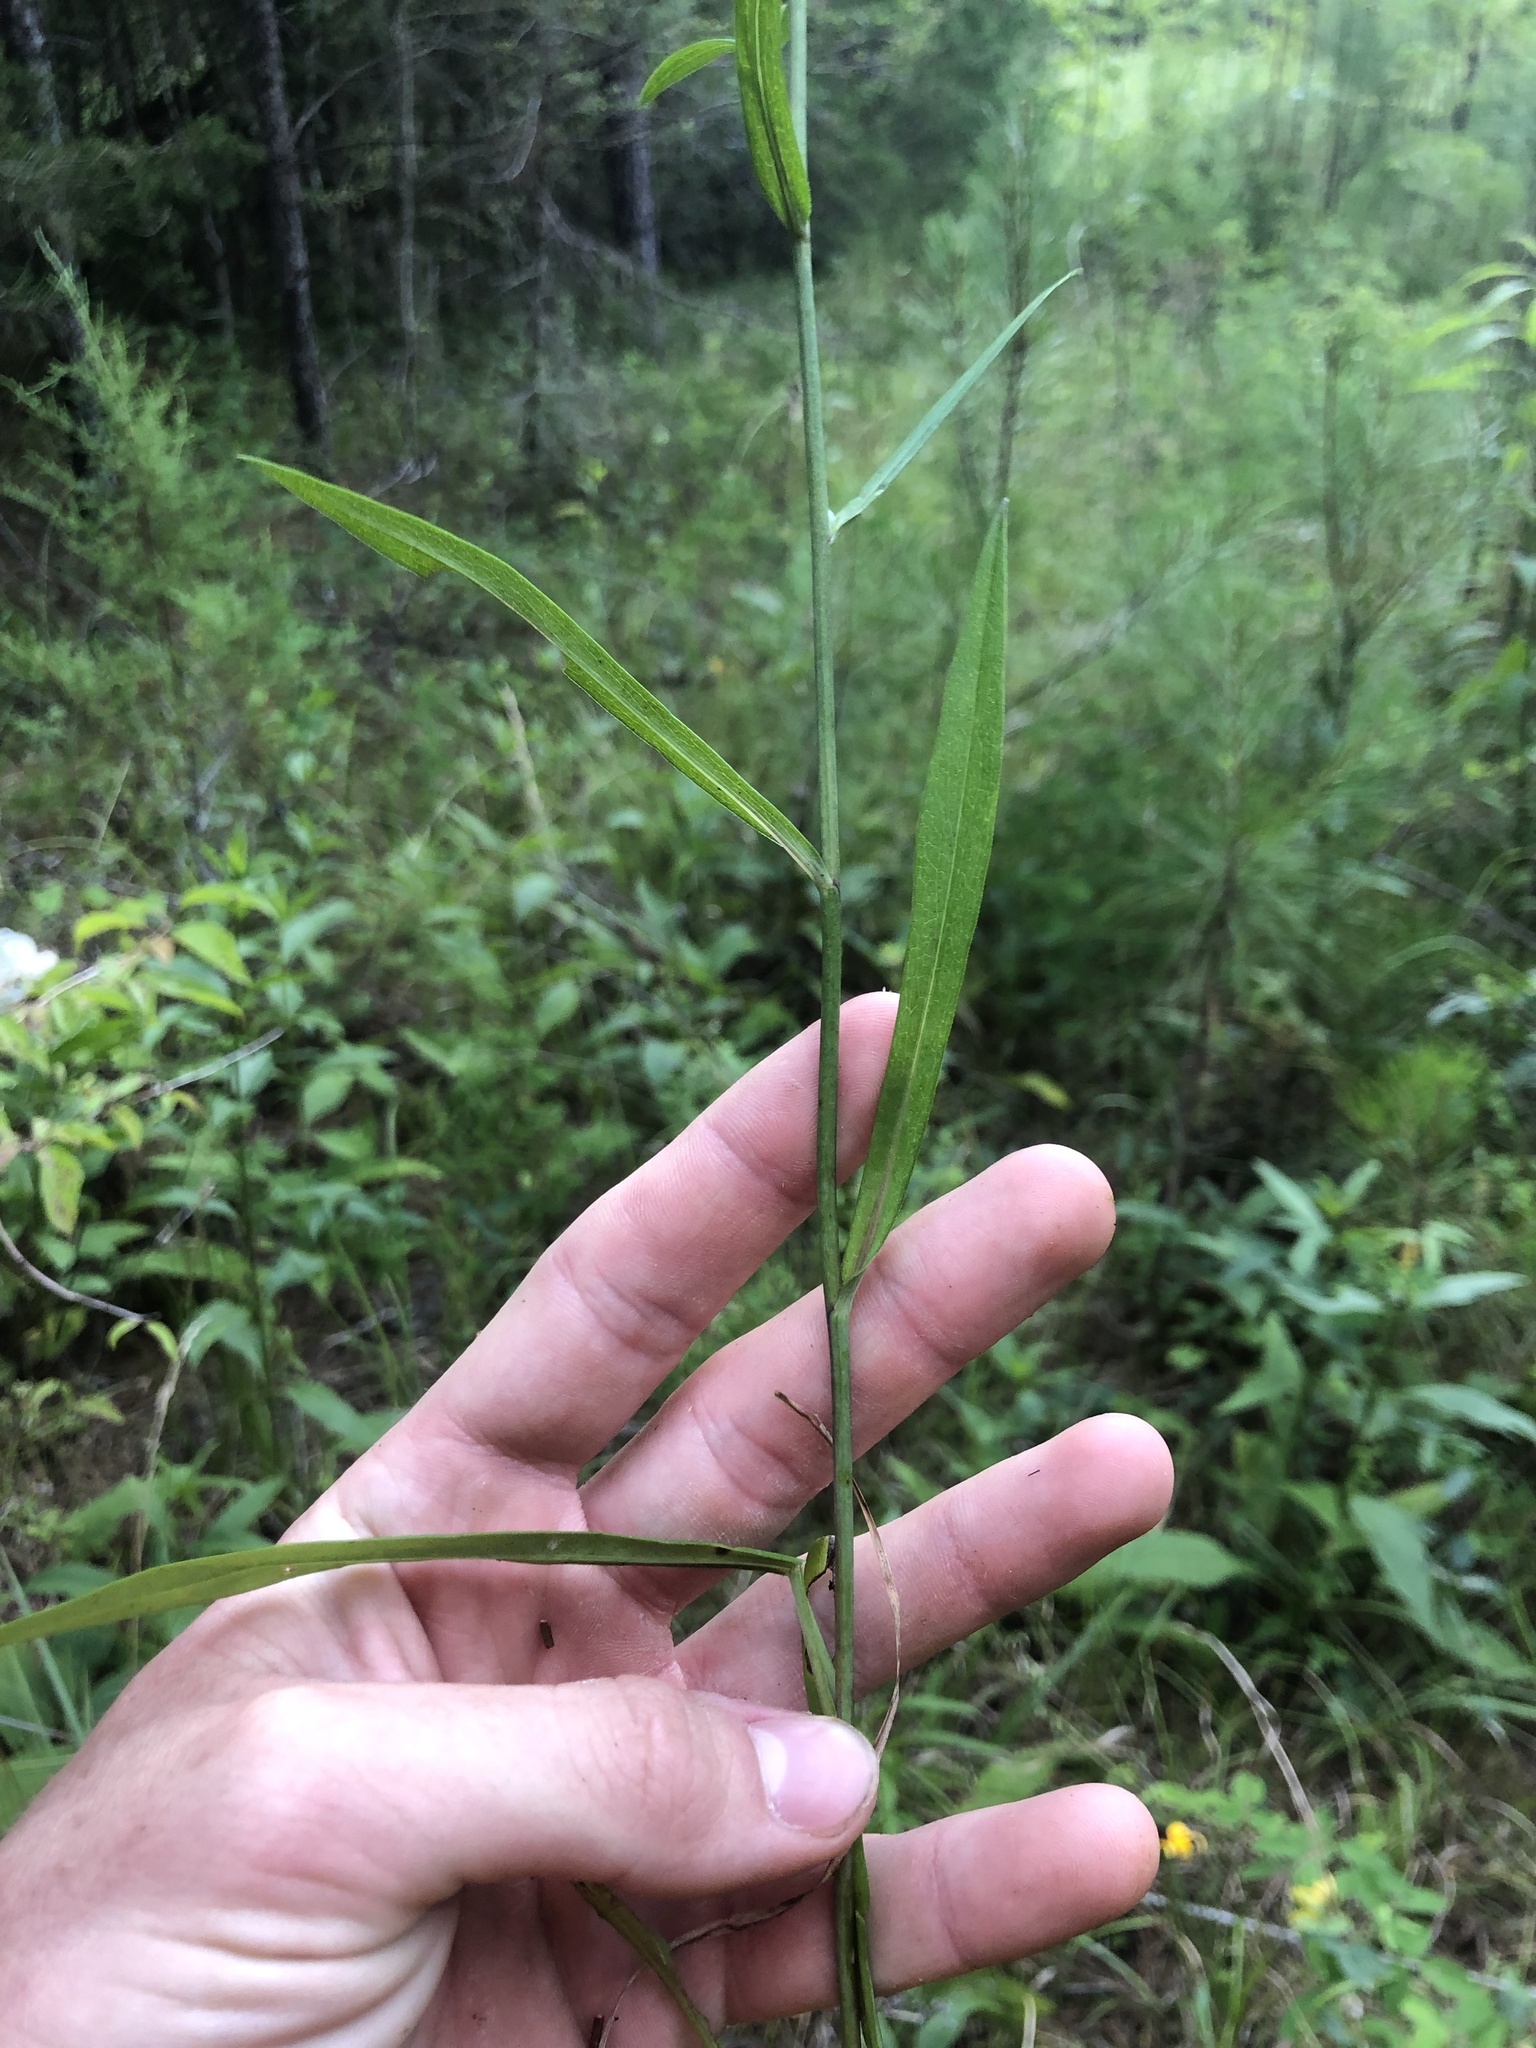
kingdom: Plantae
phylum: Tracheophyta
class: Magnoliopsida
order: Asterales
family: Asteraceae
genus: Symphyotrichum
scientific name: Symphyotrichum laeve
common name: Glaucous aster
